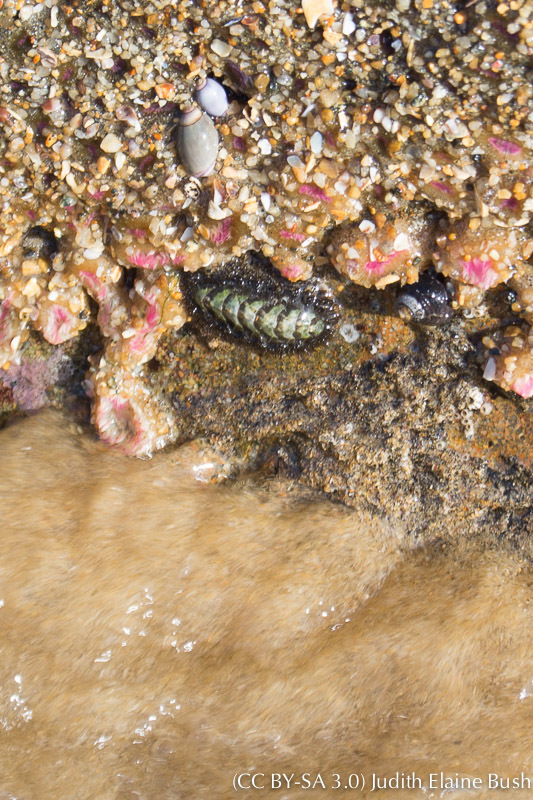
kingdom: Animalia
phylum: Mollusca
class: Polyplacophora
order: Chitonida
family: Mopaliidae
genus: Mopalia
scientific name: Mopalia muscosa
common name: Mossy chiton
